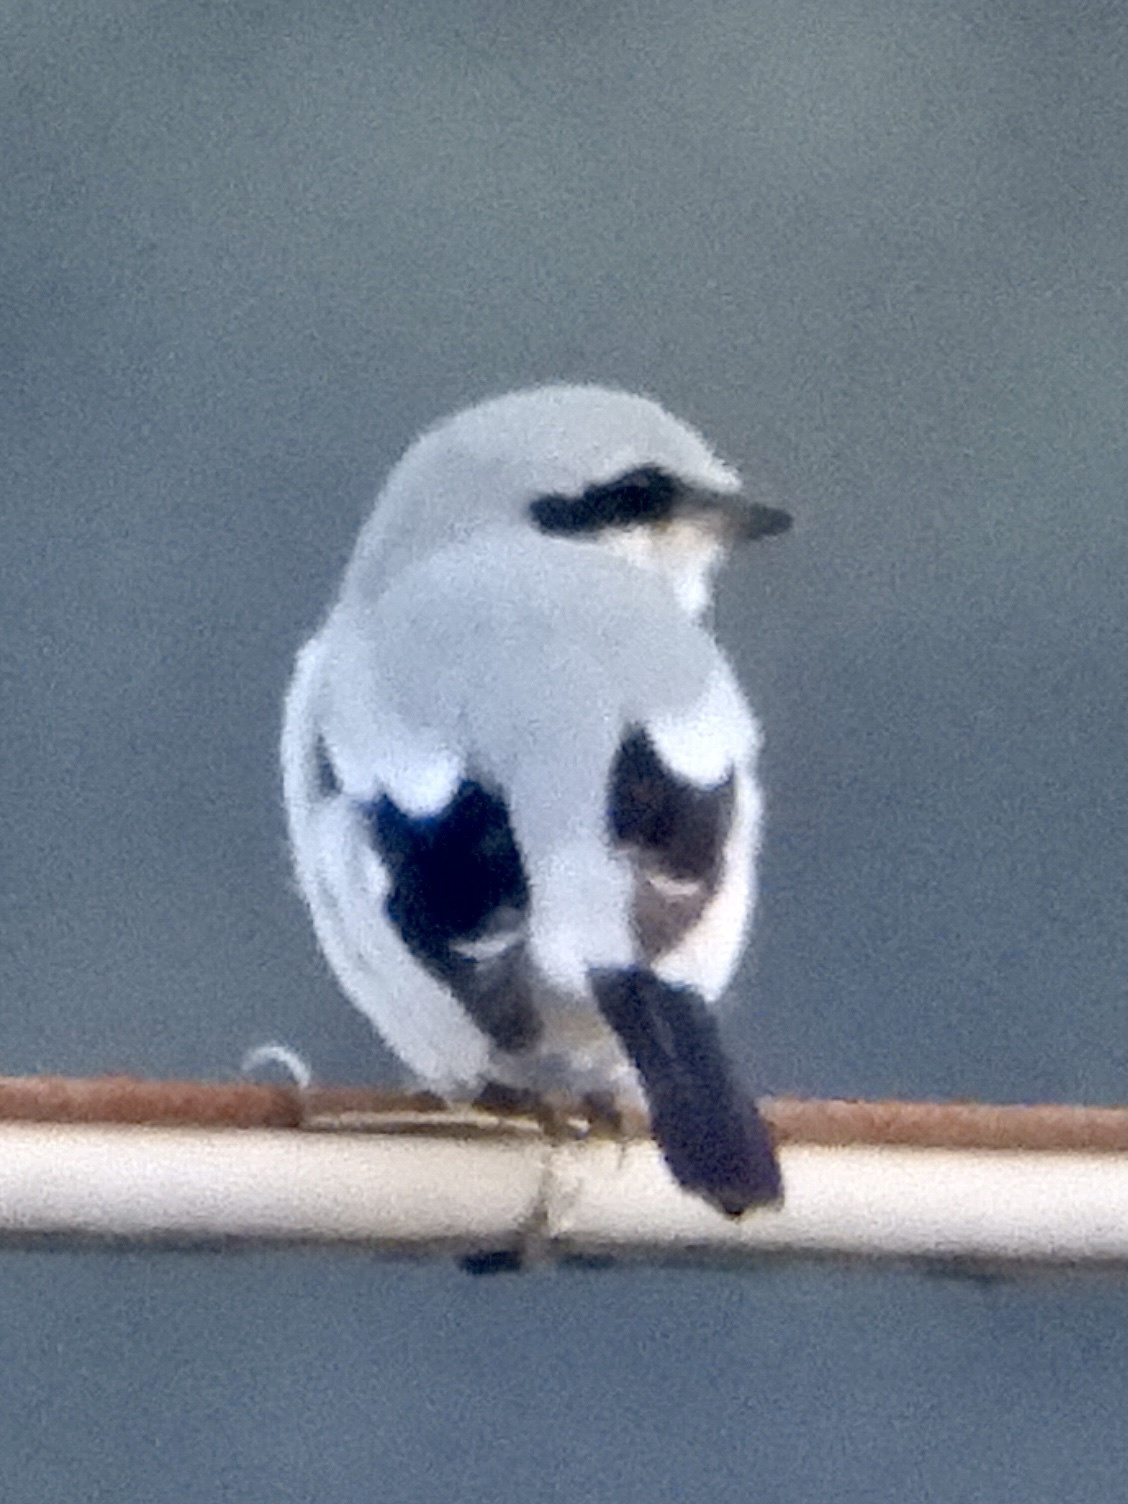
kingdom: Animalia
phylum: Chordata
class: Aves
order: Passeriformes
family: Laniidae
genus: Lanius
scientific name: Lanius excubitor
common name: Great grey shrike
